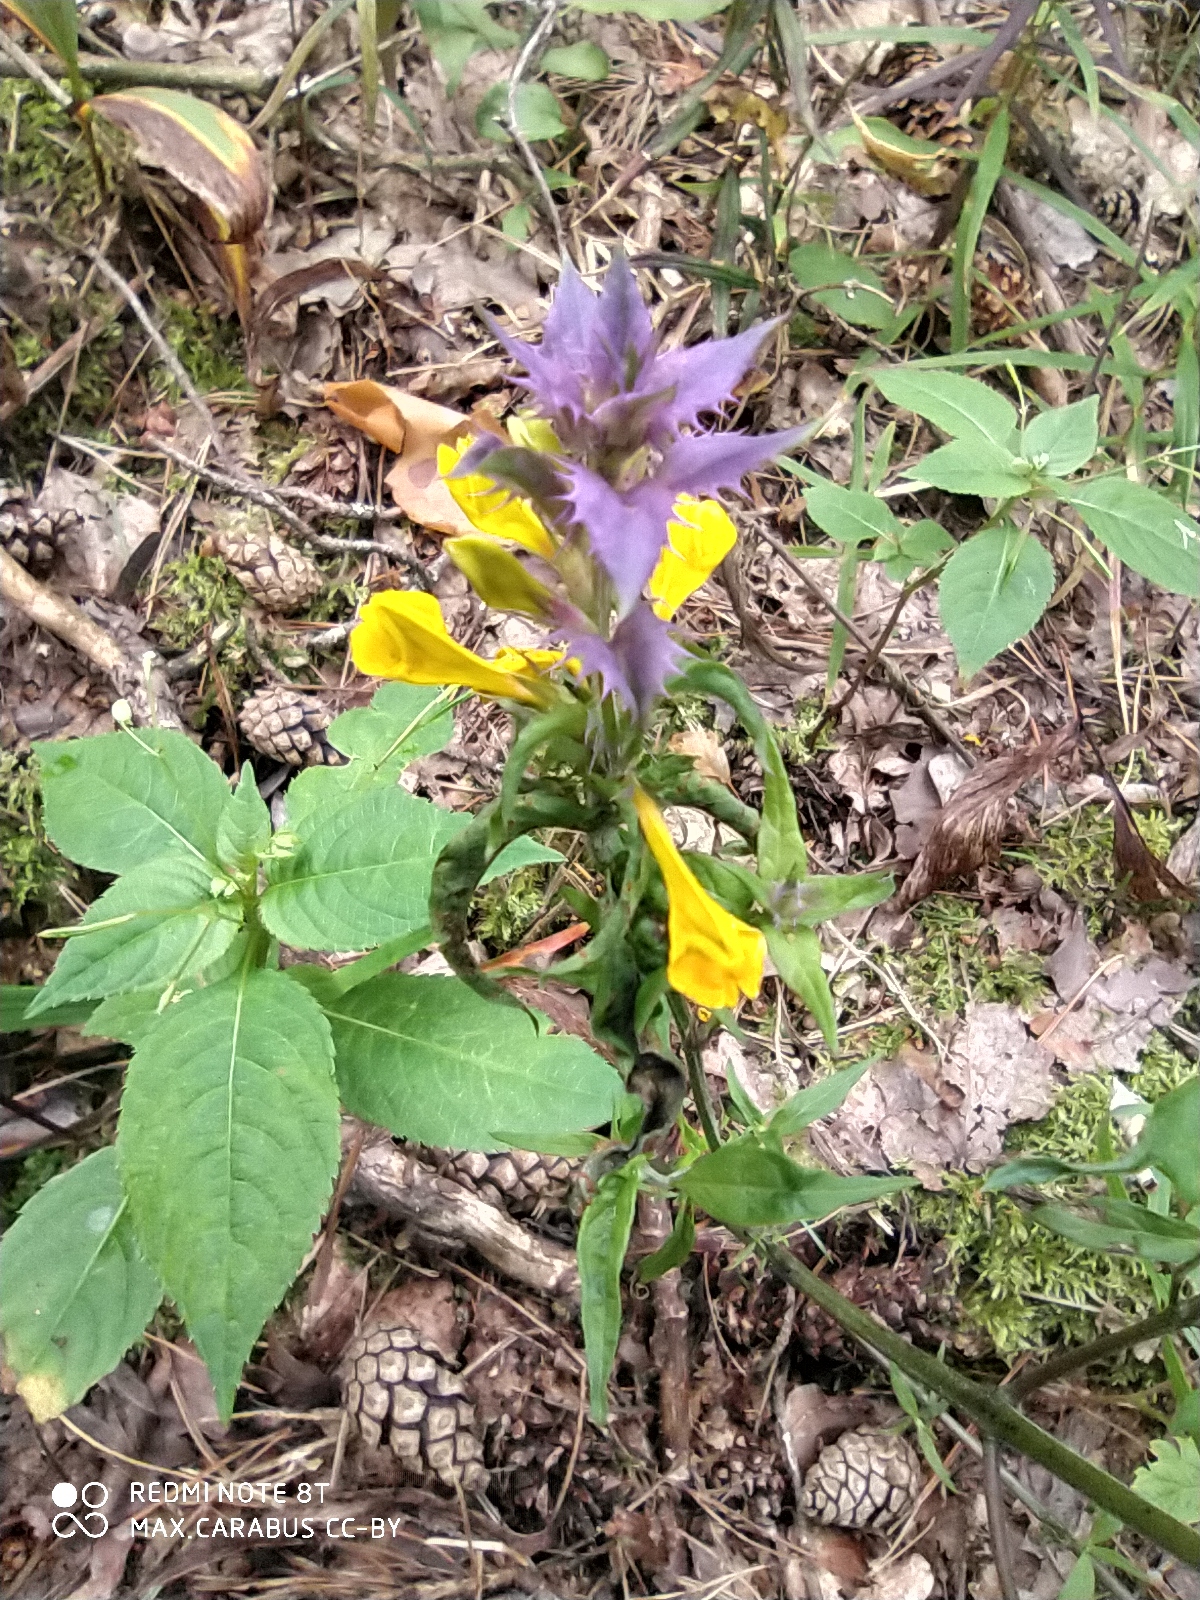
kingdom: Plantae
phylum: Tracheophyta
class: Magnoliopsida
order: Lamiales
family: Orobanchaceae
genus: Melampyrum
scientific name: Melampyrum nemorosum
